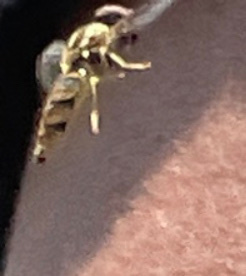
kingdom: Animalia
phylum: Arthropoda
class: Insecta
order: Diptera
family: Syrphidae
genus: Toxomerus
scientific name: Toxomerus politus
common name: Maize calligrapher
